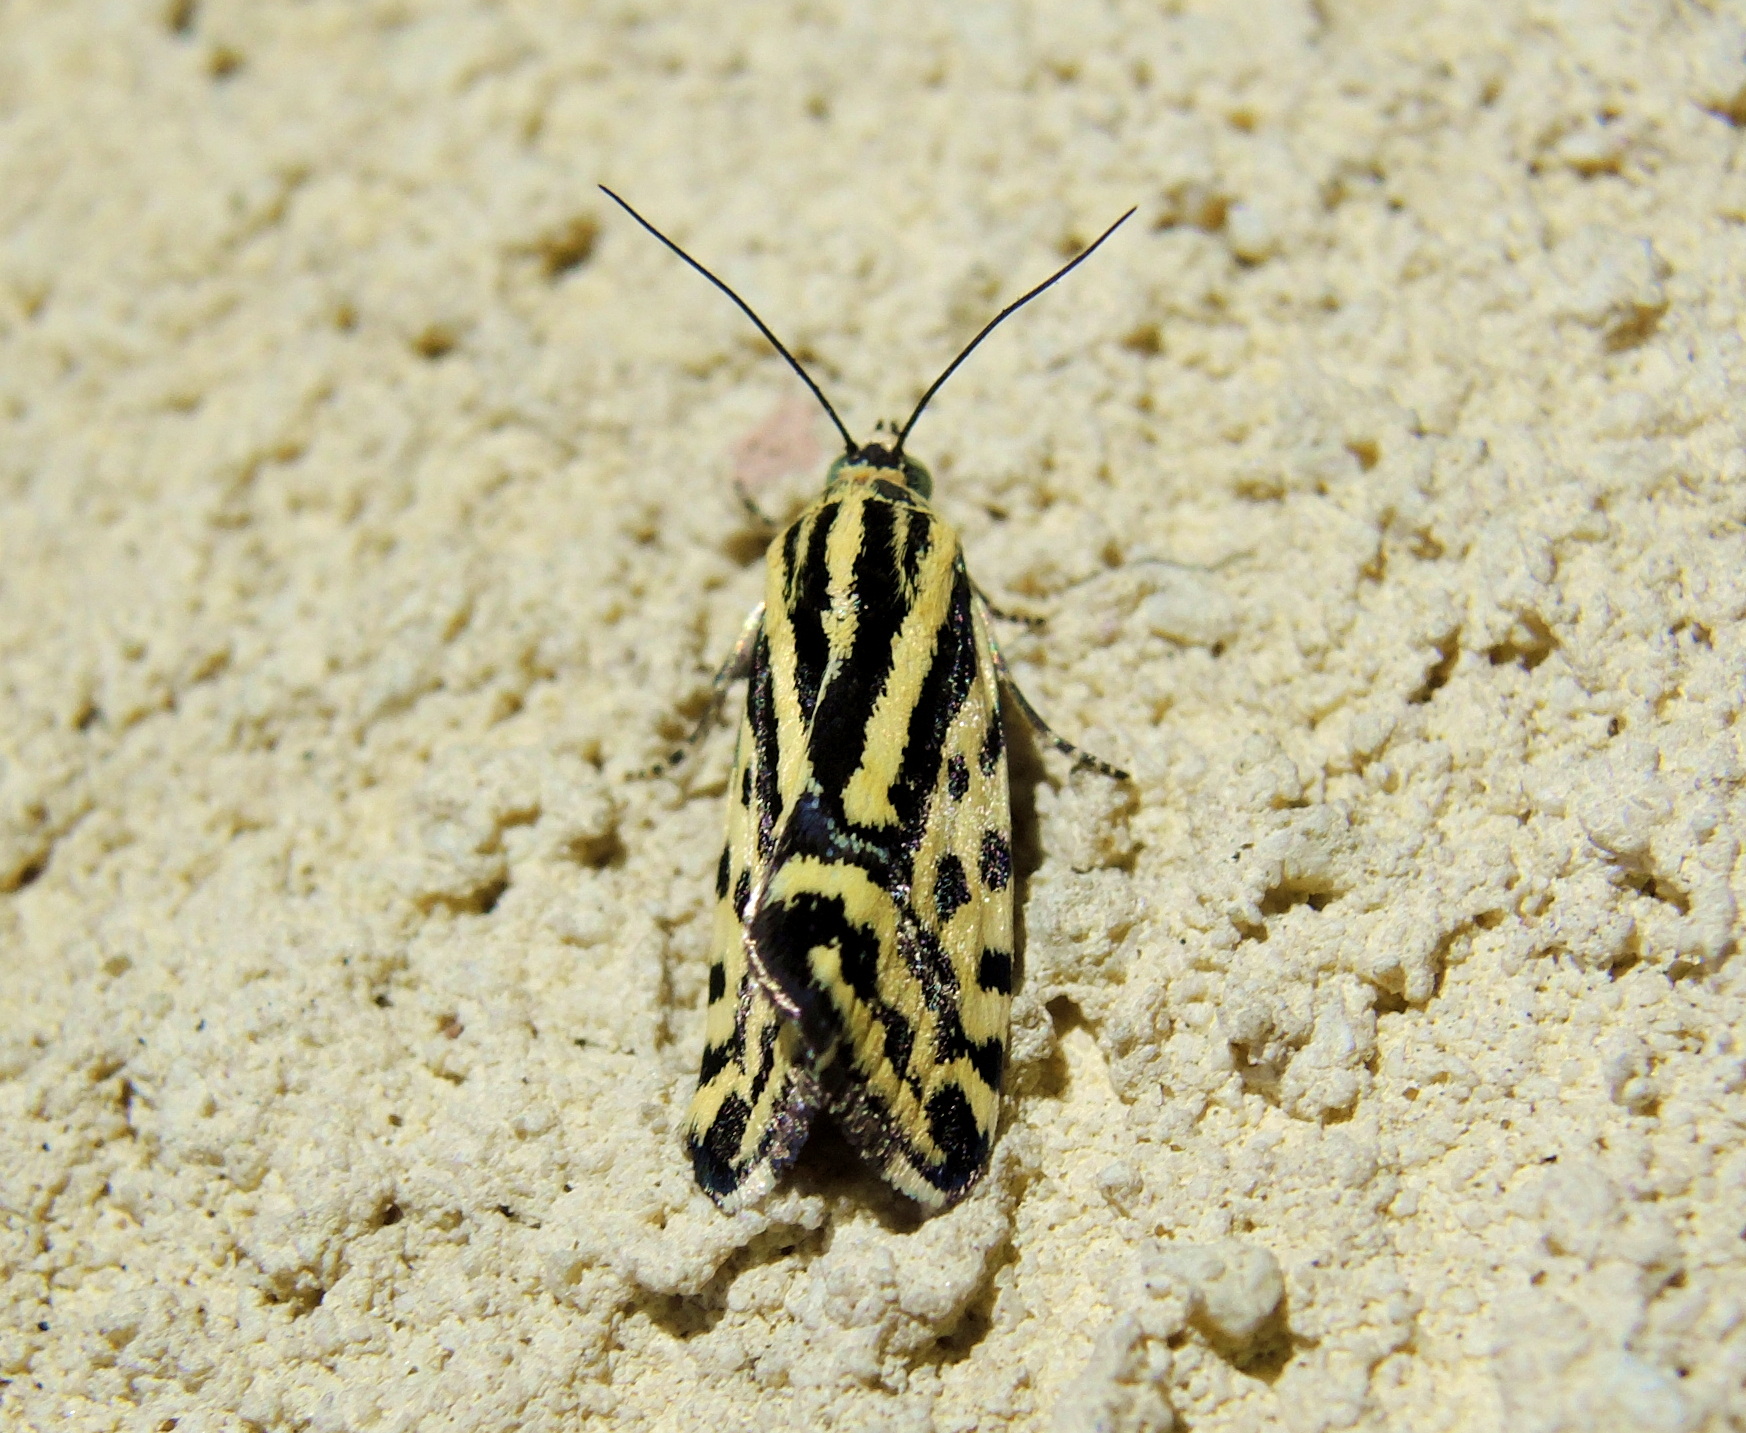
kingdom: Animalia
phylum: Arthropoda
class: Insecta
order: Lepidoptera
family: Noctuidae
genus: Acontia
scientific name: Acontia trabealis
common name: Spotted sulphur
